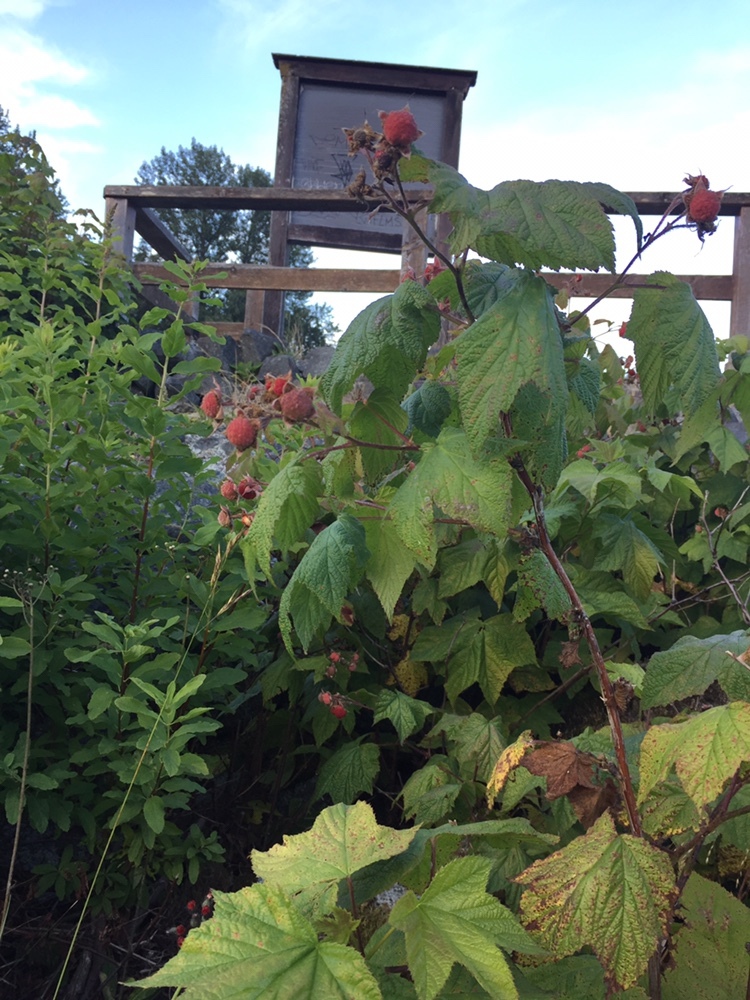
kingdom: Plantae
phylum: Tracheophyta
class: Magnoliopsida
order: Rosales
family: Rosaceae
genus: Rubus
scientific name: Rubus parviflorus
